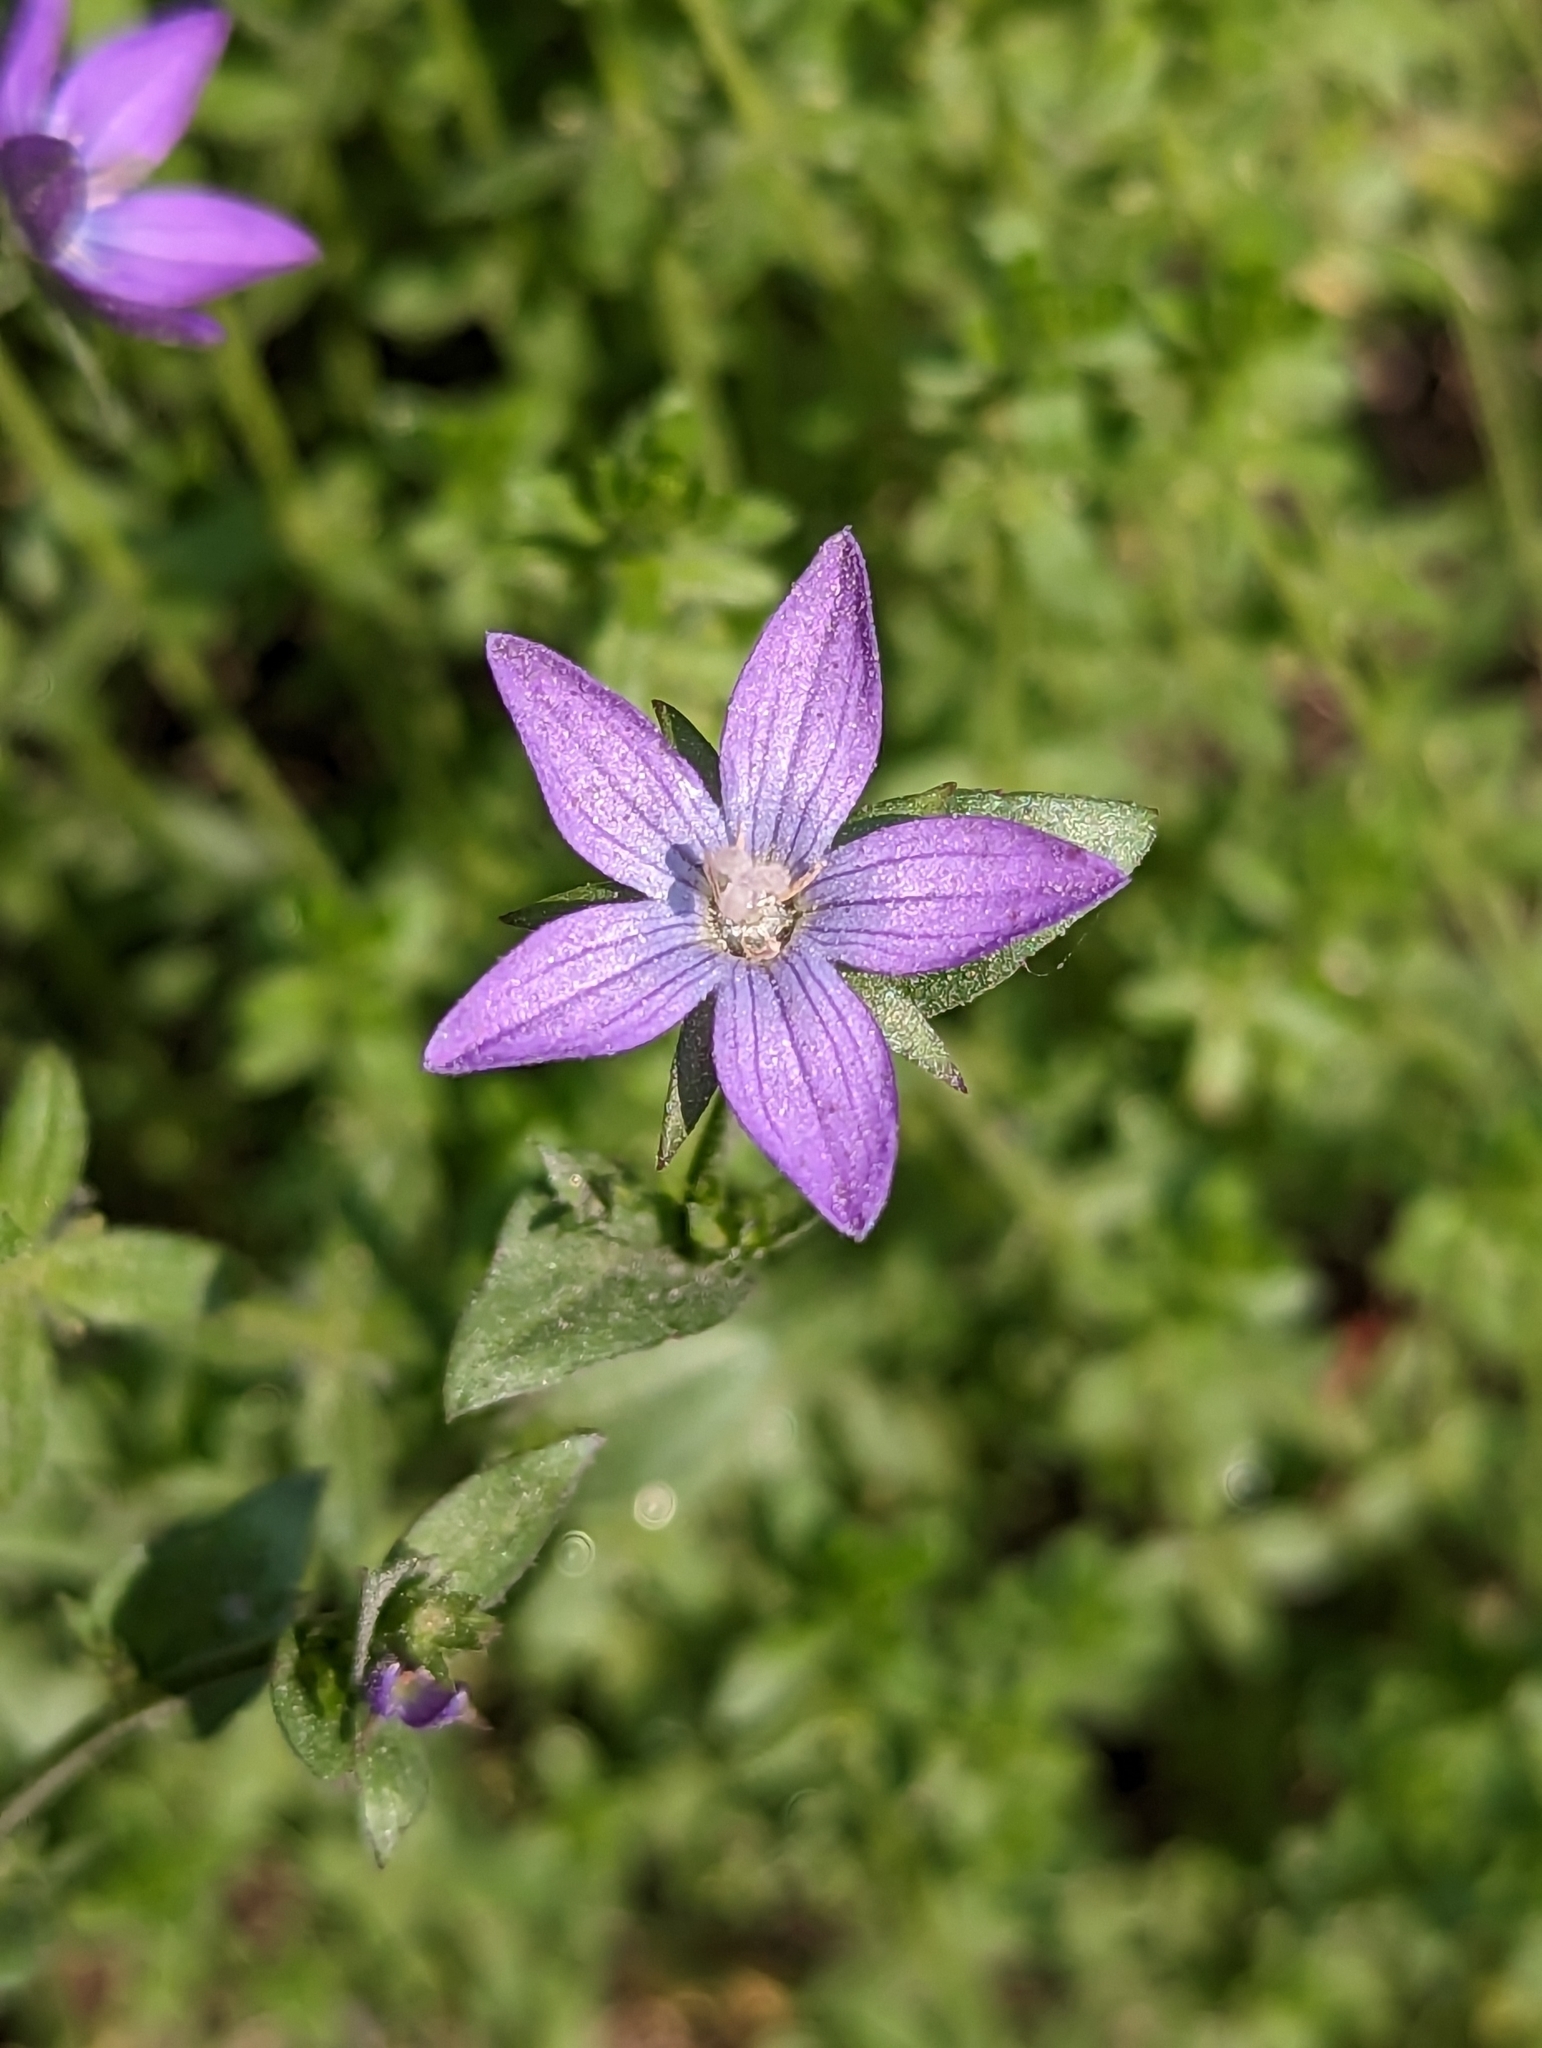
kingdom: Plantae
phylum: Tracheophyta
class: Magnoliopsida
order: Asterales
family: Campanulaceae
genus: Triodanis
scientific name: Triodanis perfoliata
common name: Clasping venus' looking-glass
